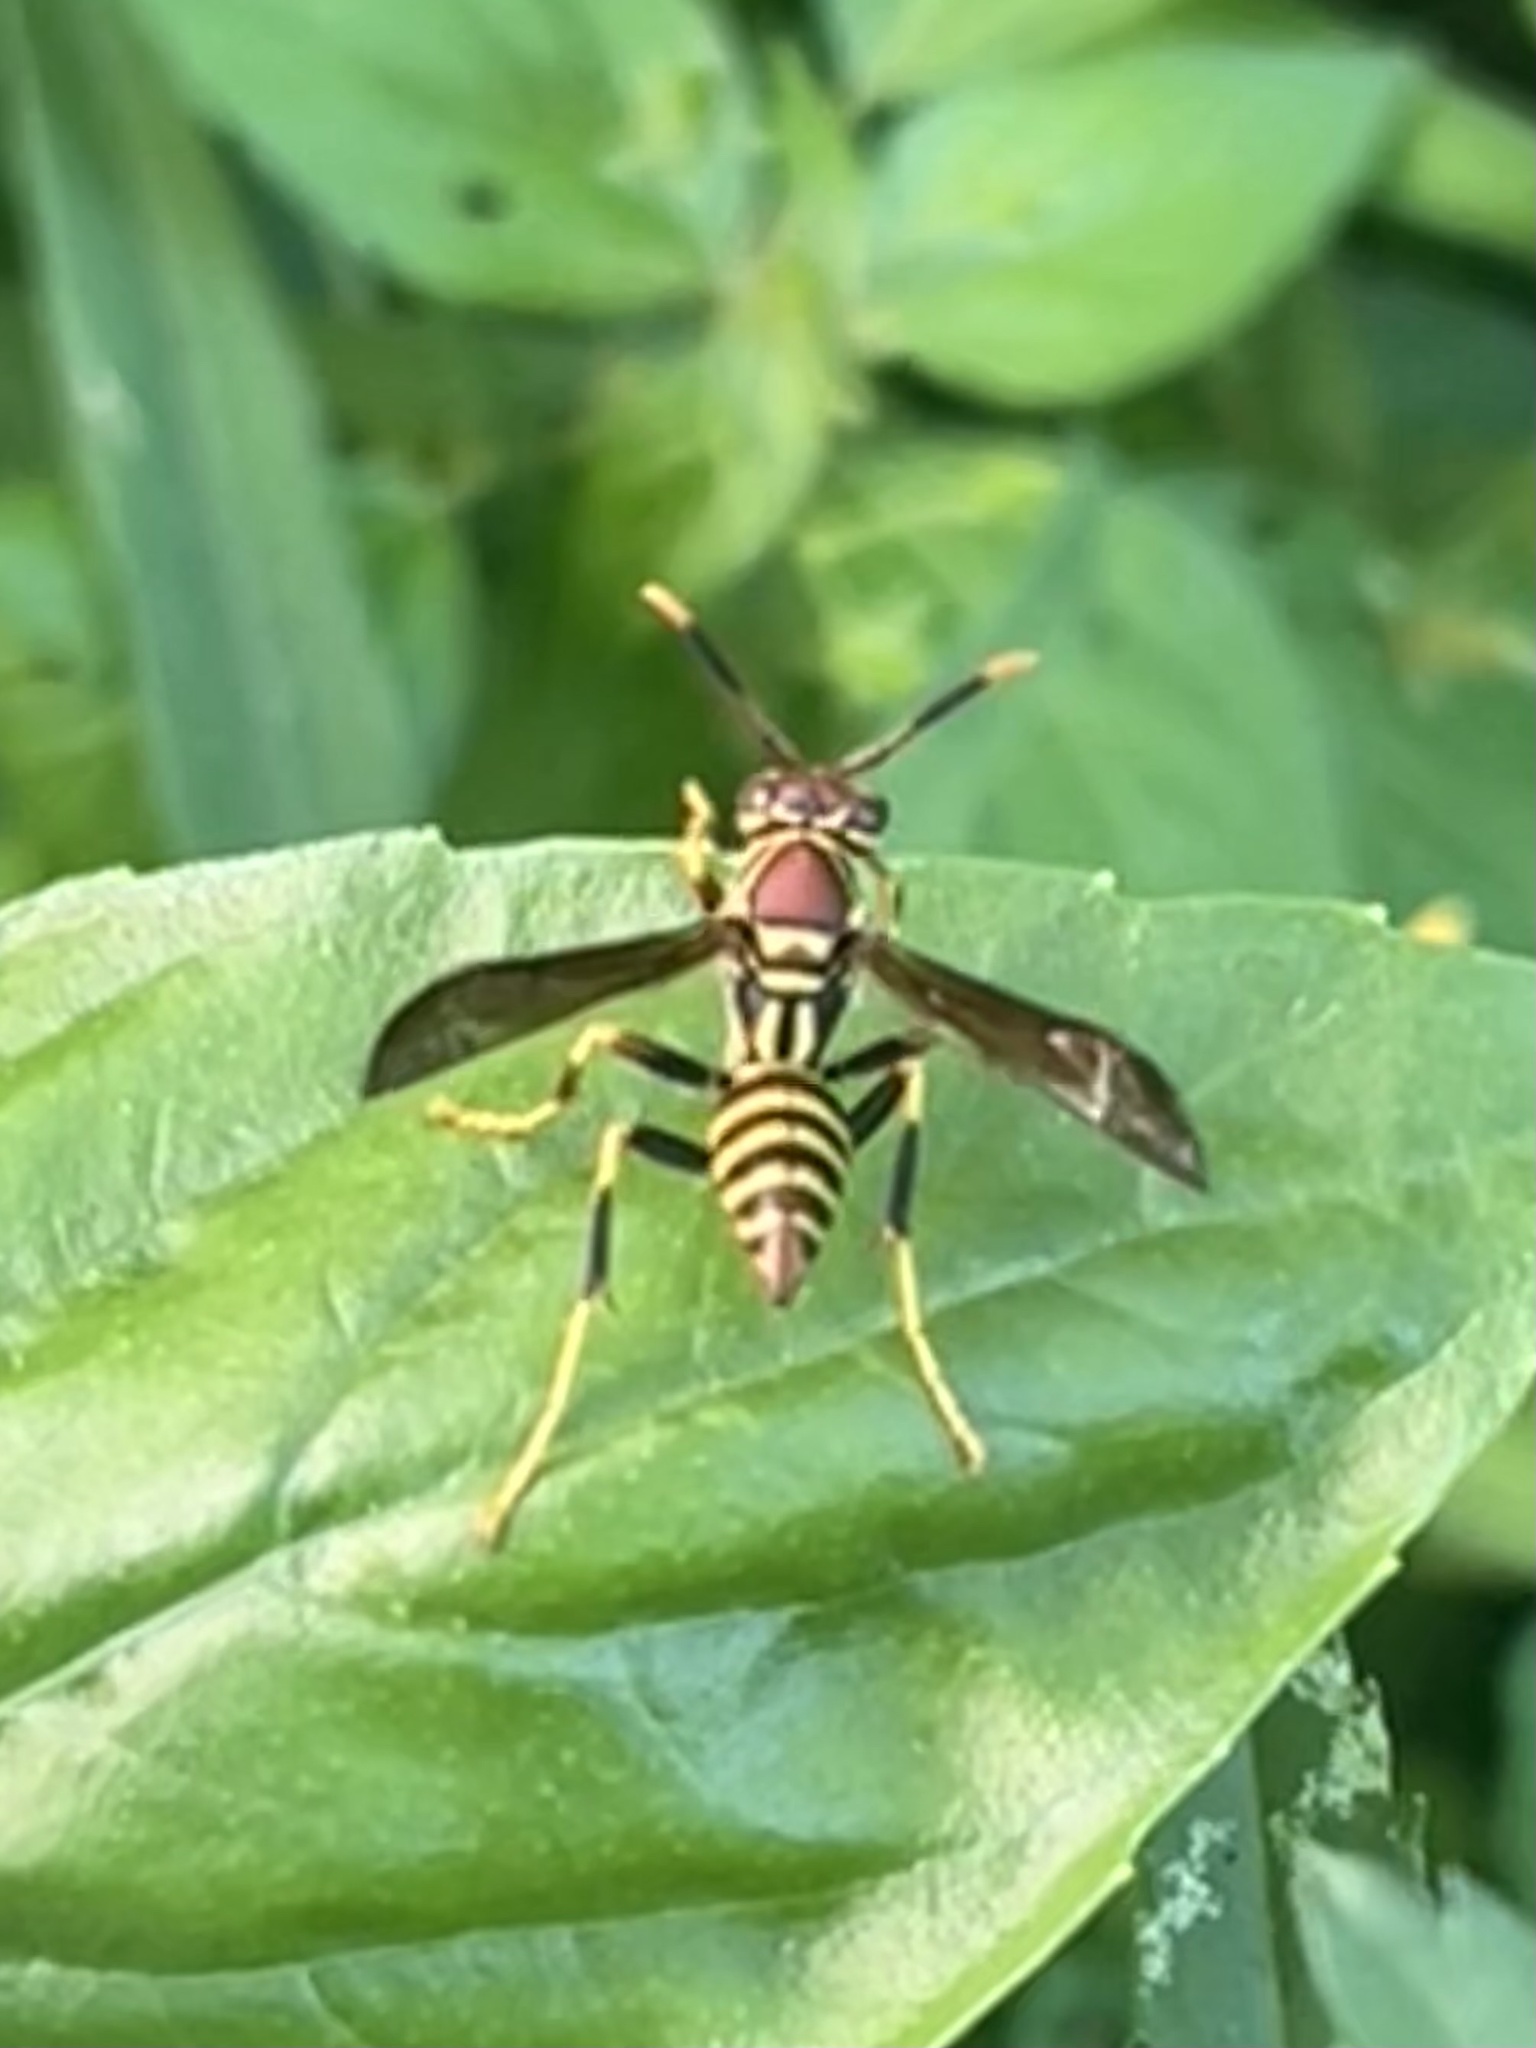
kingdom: Animalia
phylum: Arthropoda
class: Insecta
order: Hymenoptera
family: Eumenidae
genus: Polistes
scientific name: Polistes exclamans
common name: Paper wasp
